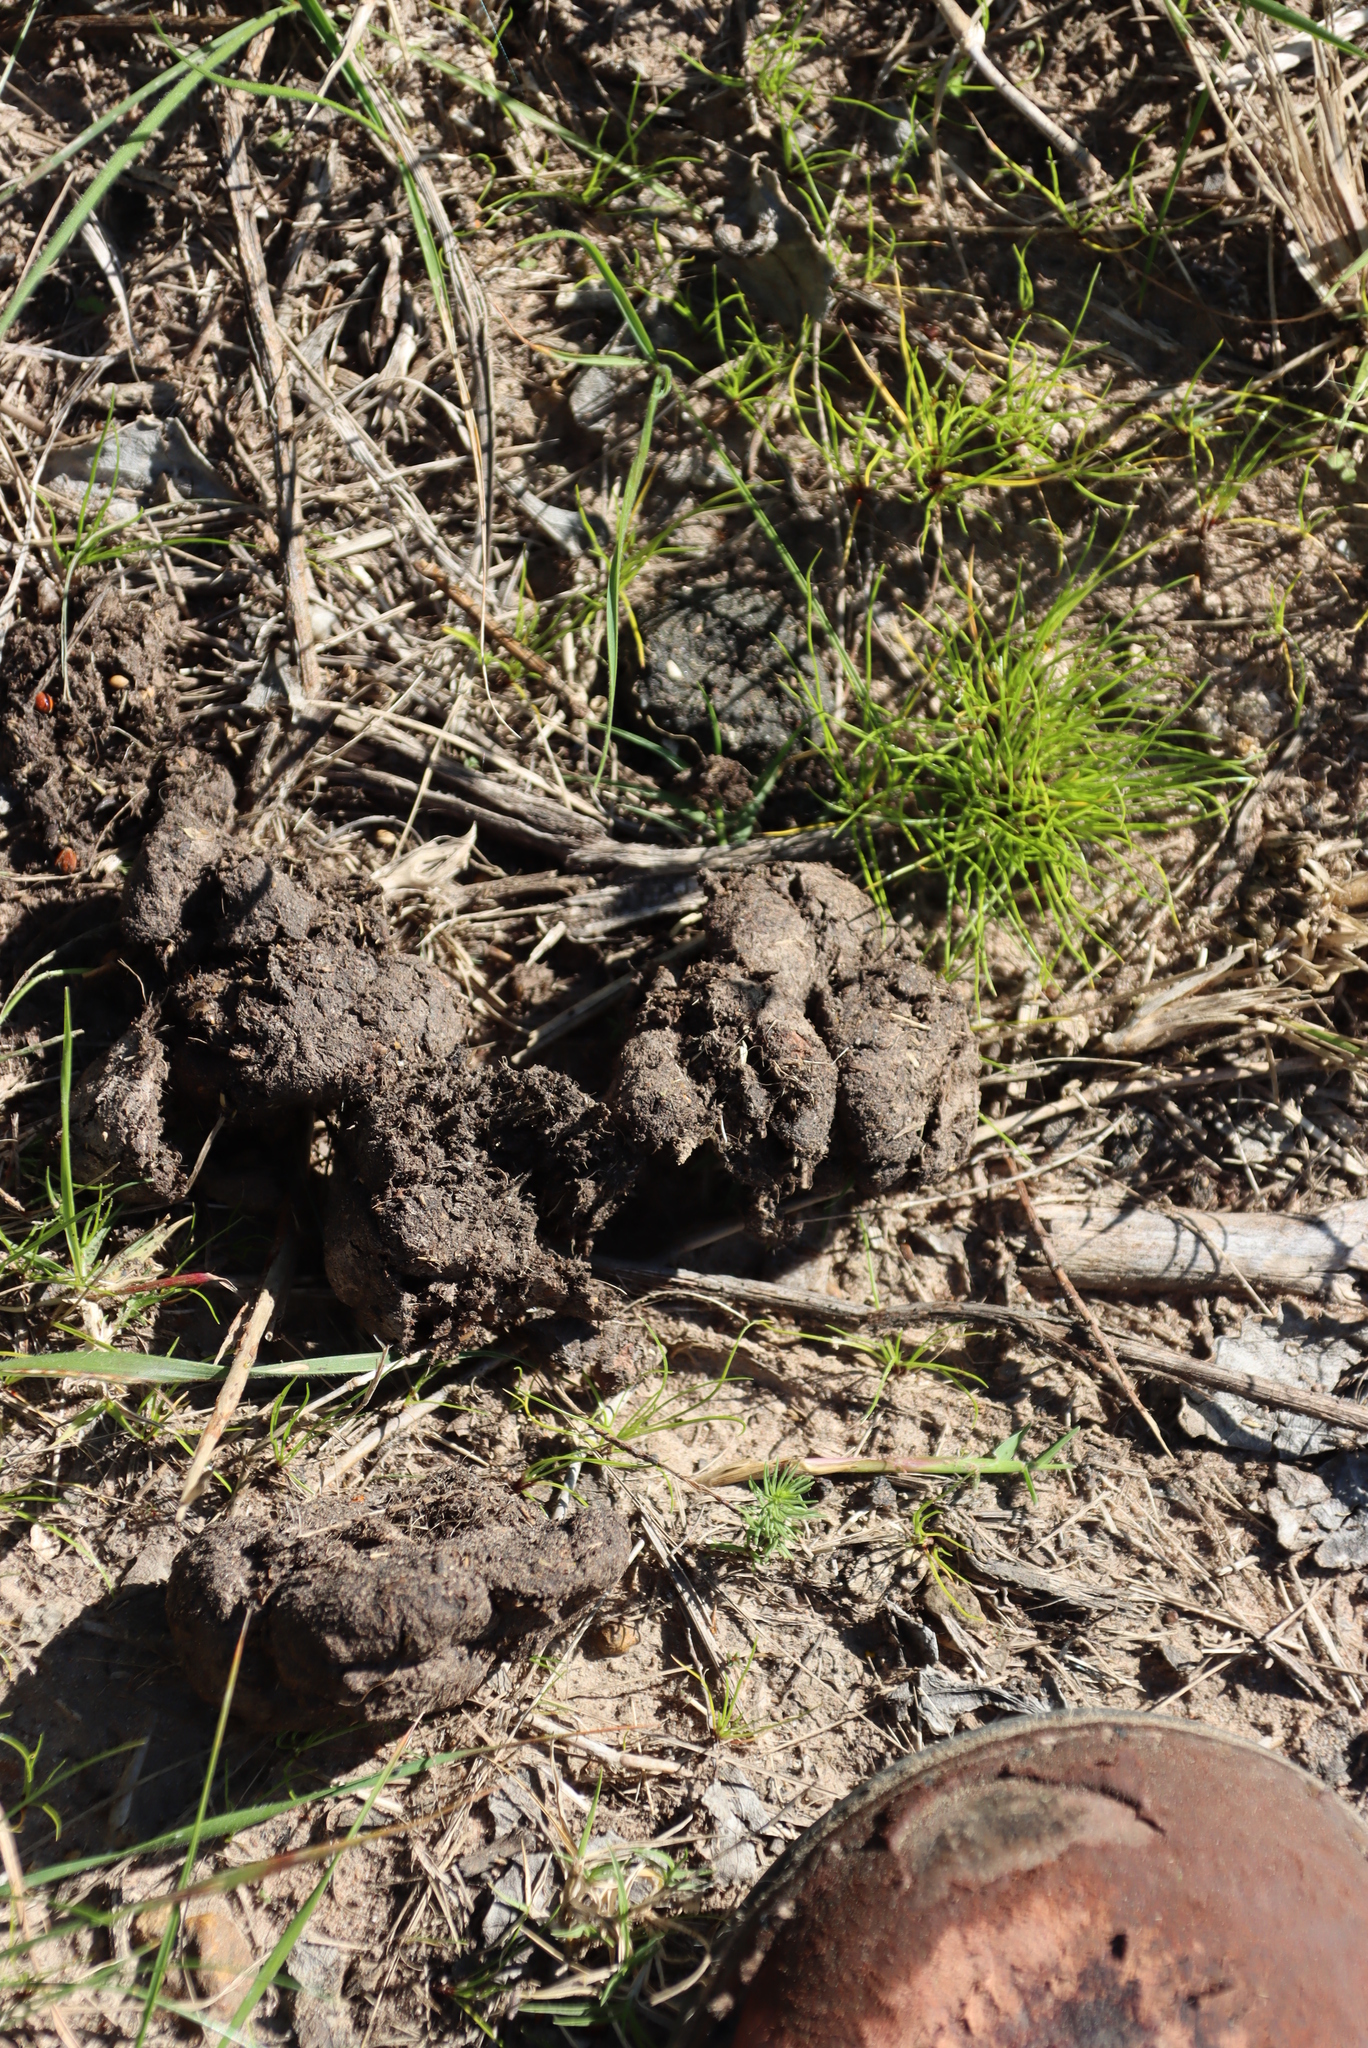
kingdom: Animalia
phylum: Chordata
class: Mammalia
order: Artiodactyla
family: Suidae
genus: Potamochoerus
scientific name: Potamochoerus larvatus
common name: Bushpig
